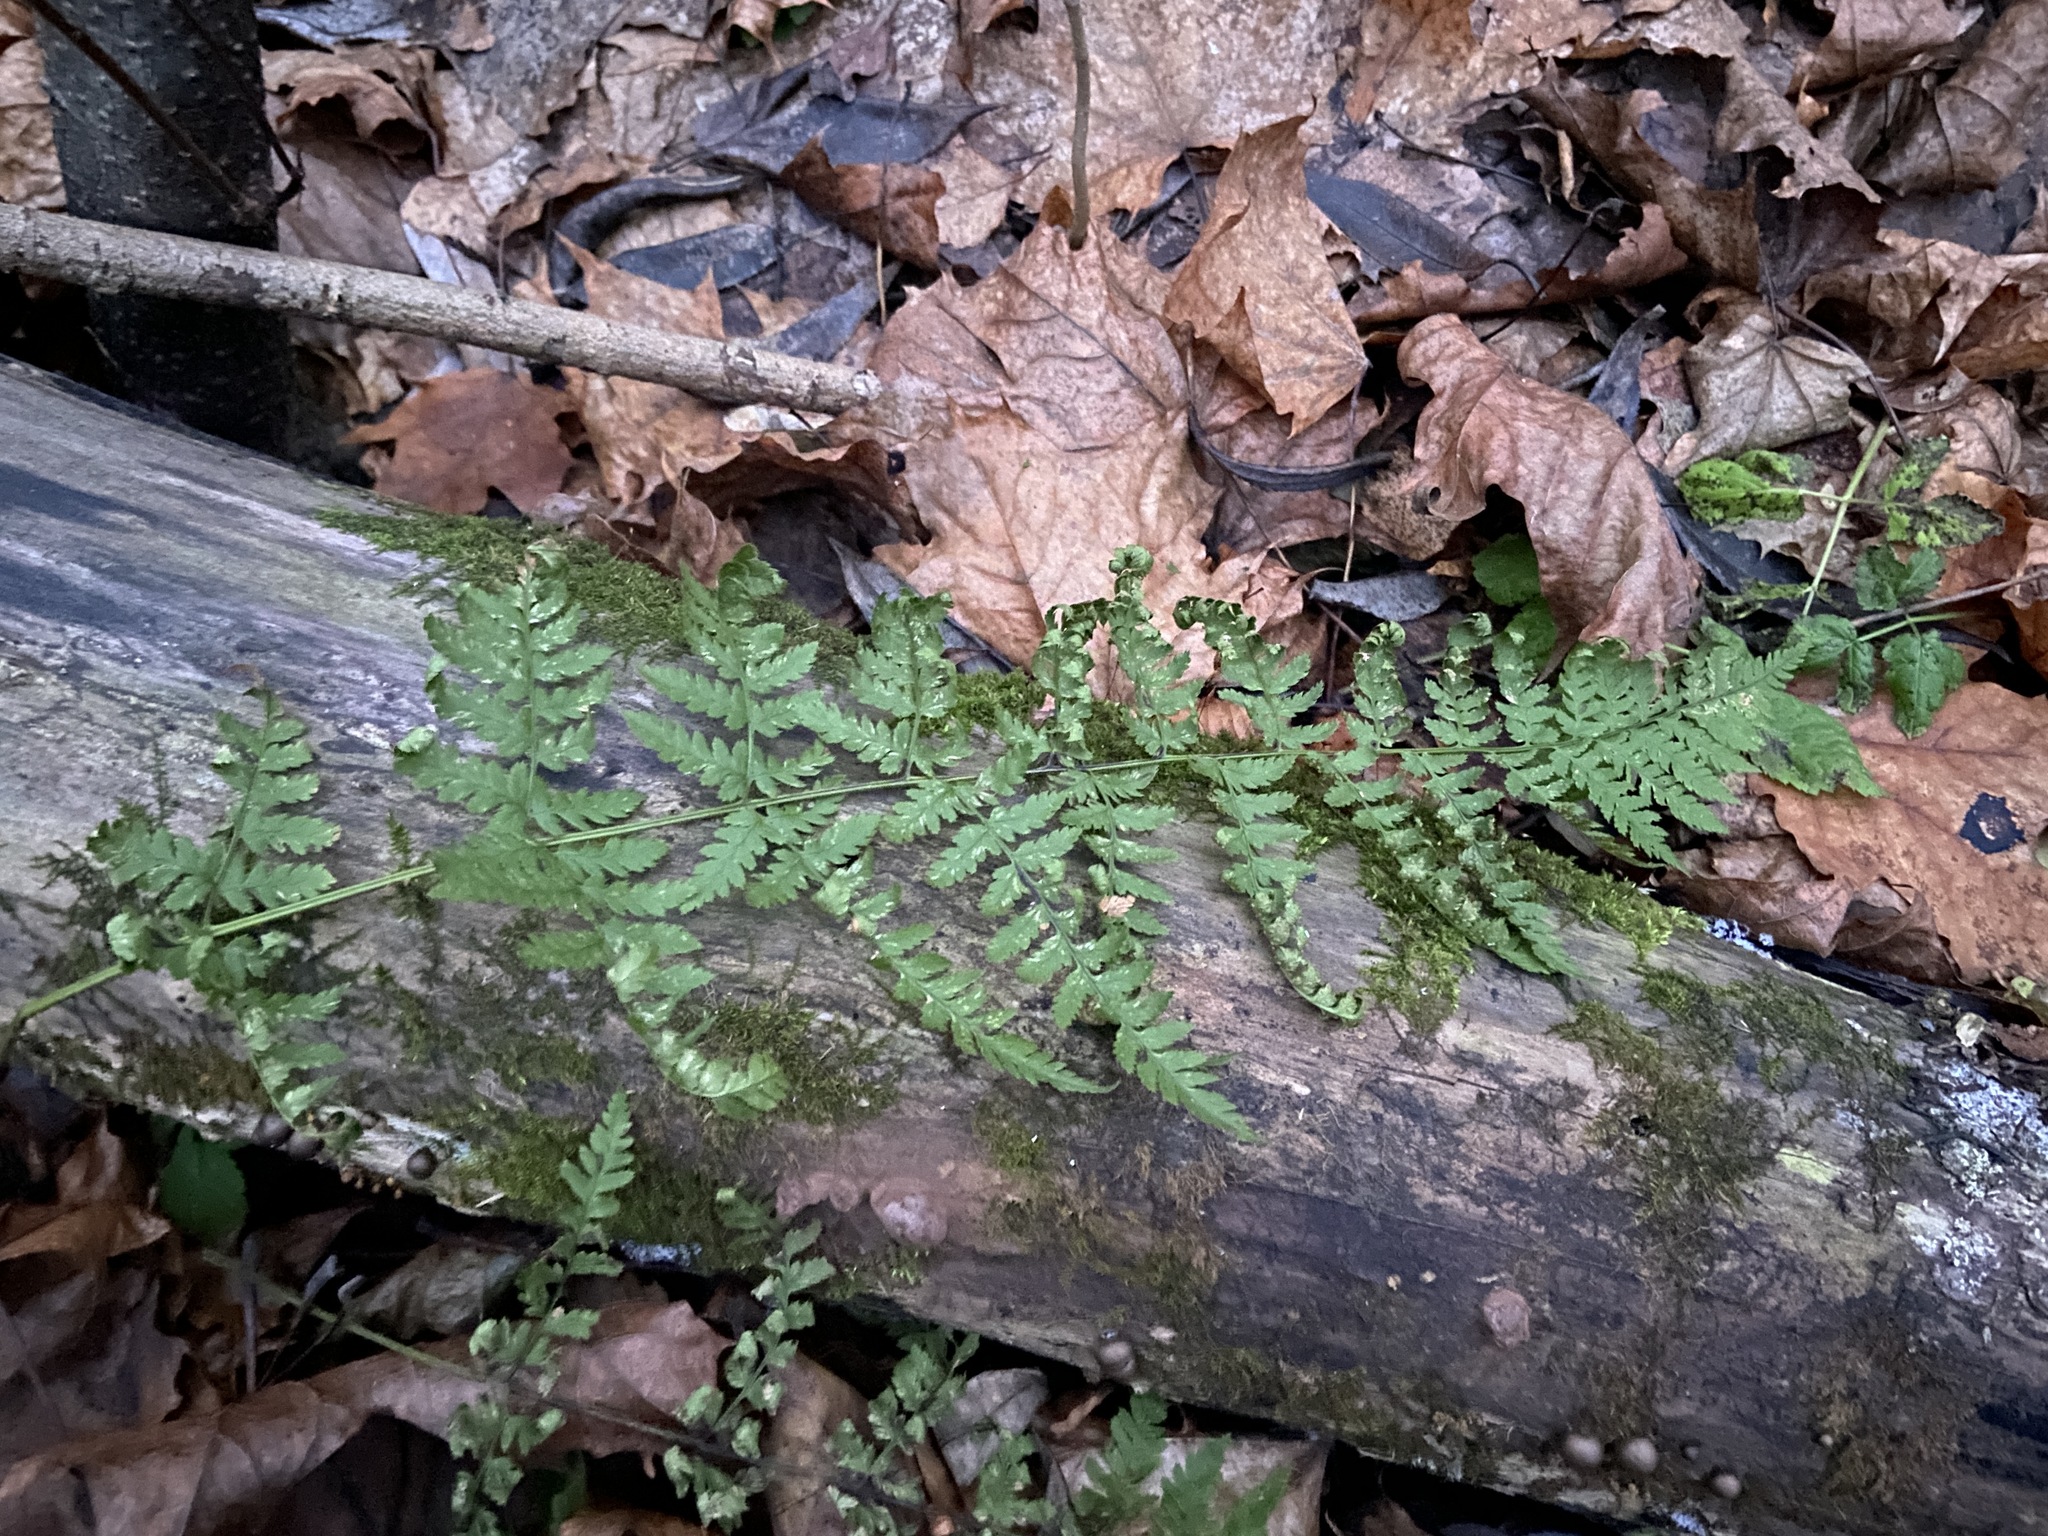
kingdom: Plantae
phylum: Tracheophyta
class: Polypodiopsida
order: Polypodiales
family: Dryopteridaceae
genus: Dryopteris
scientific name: Dryopteris carthusiana
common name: Narrow buckler-fern
